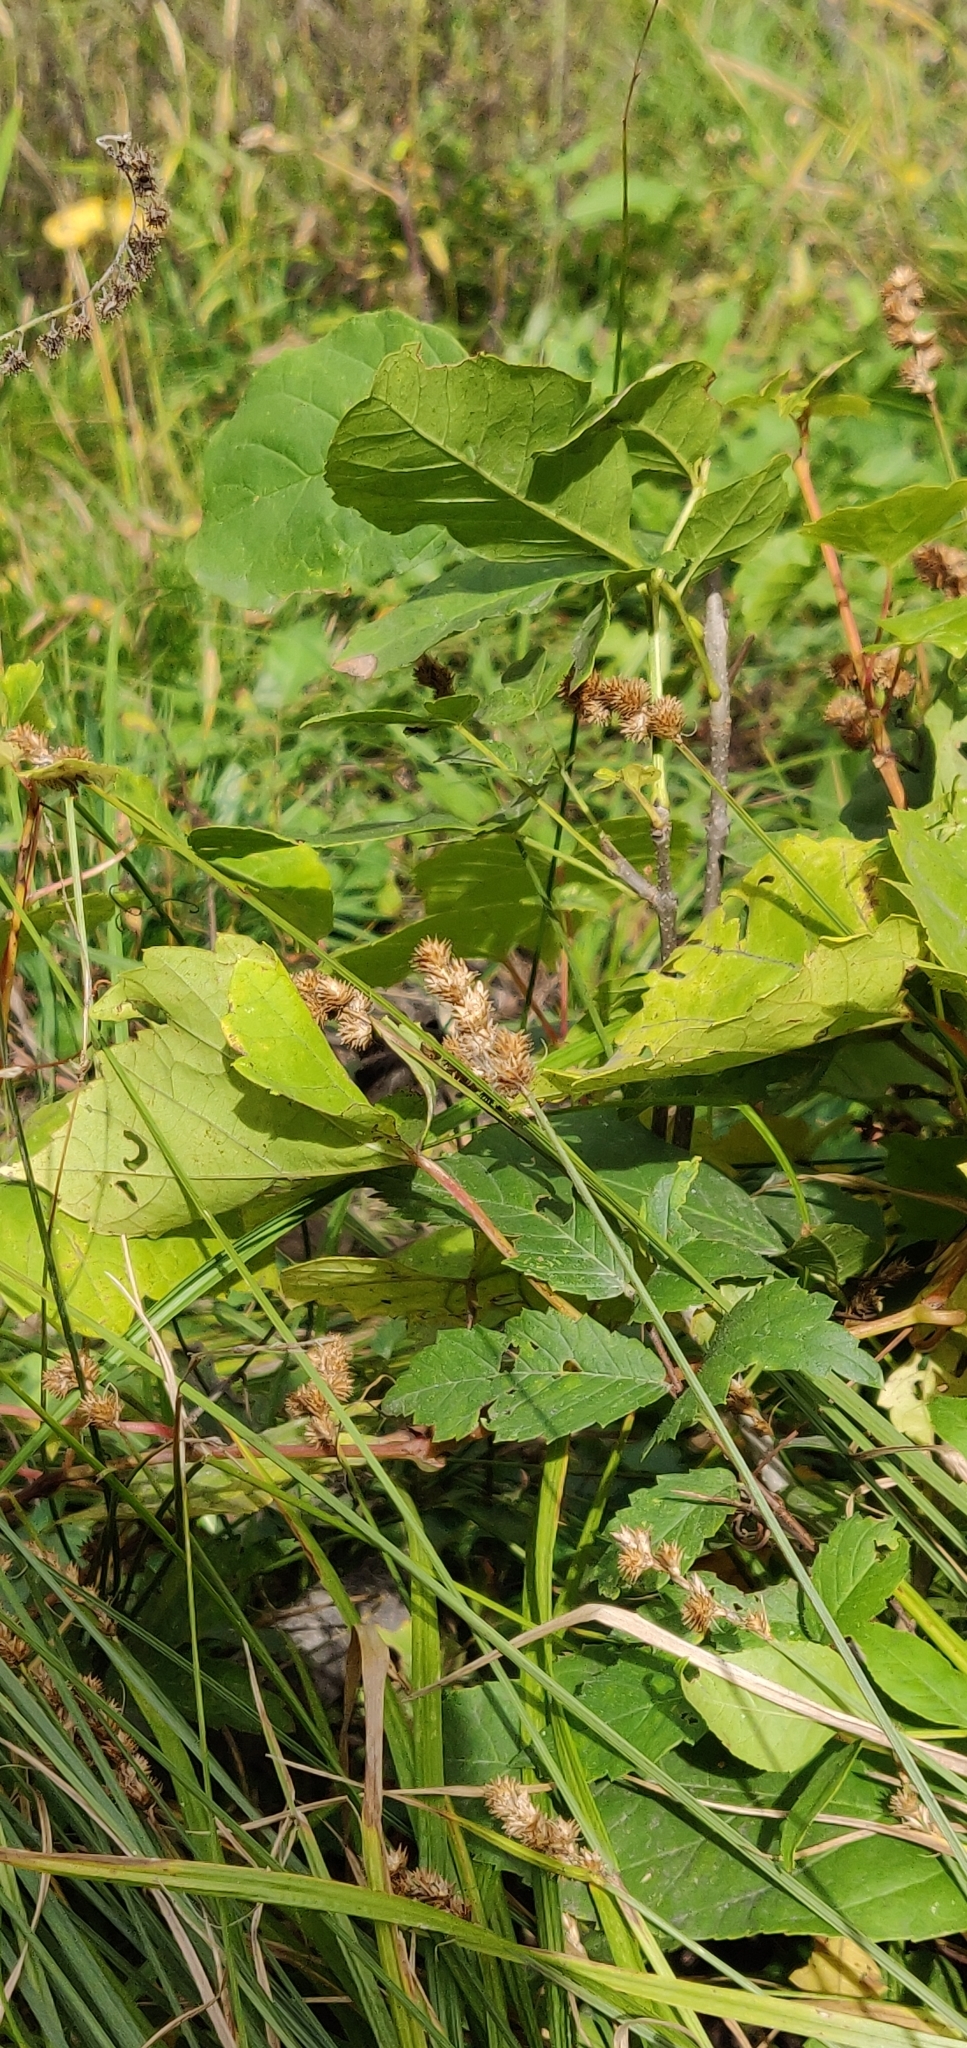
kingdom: Plantae
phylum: Tracheophyta
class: Liliopsida
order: Poales
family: Cyperaceae
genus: Carex
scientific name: Carex bebbii
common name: Bebb's sedge
